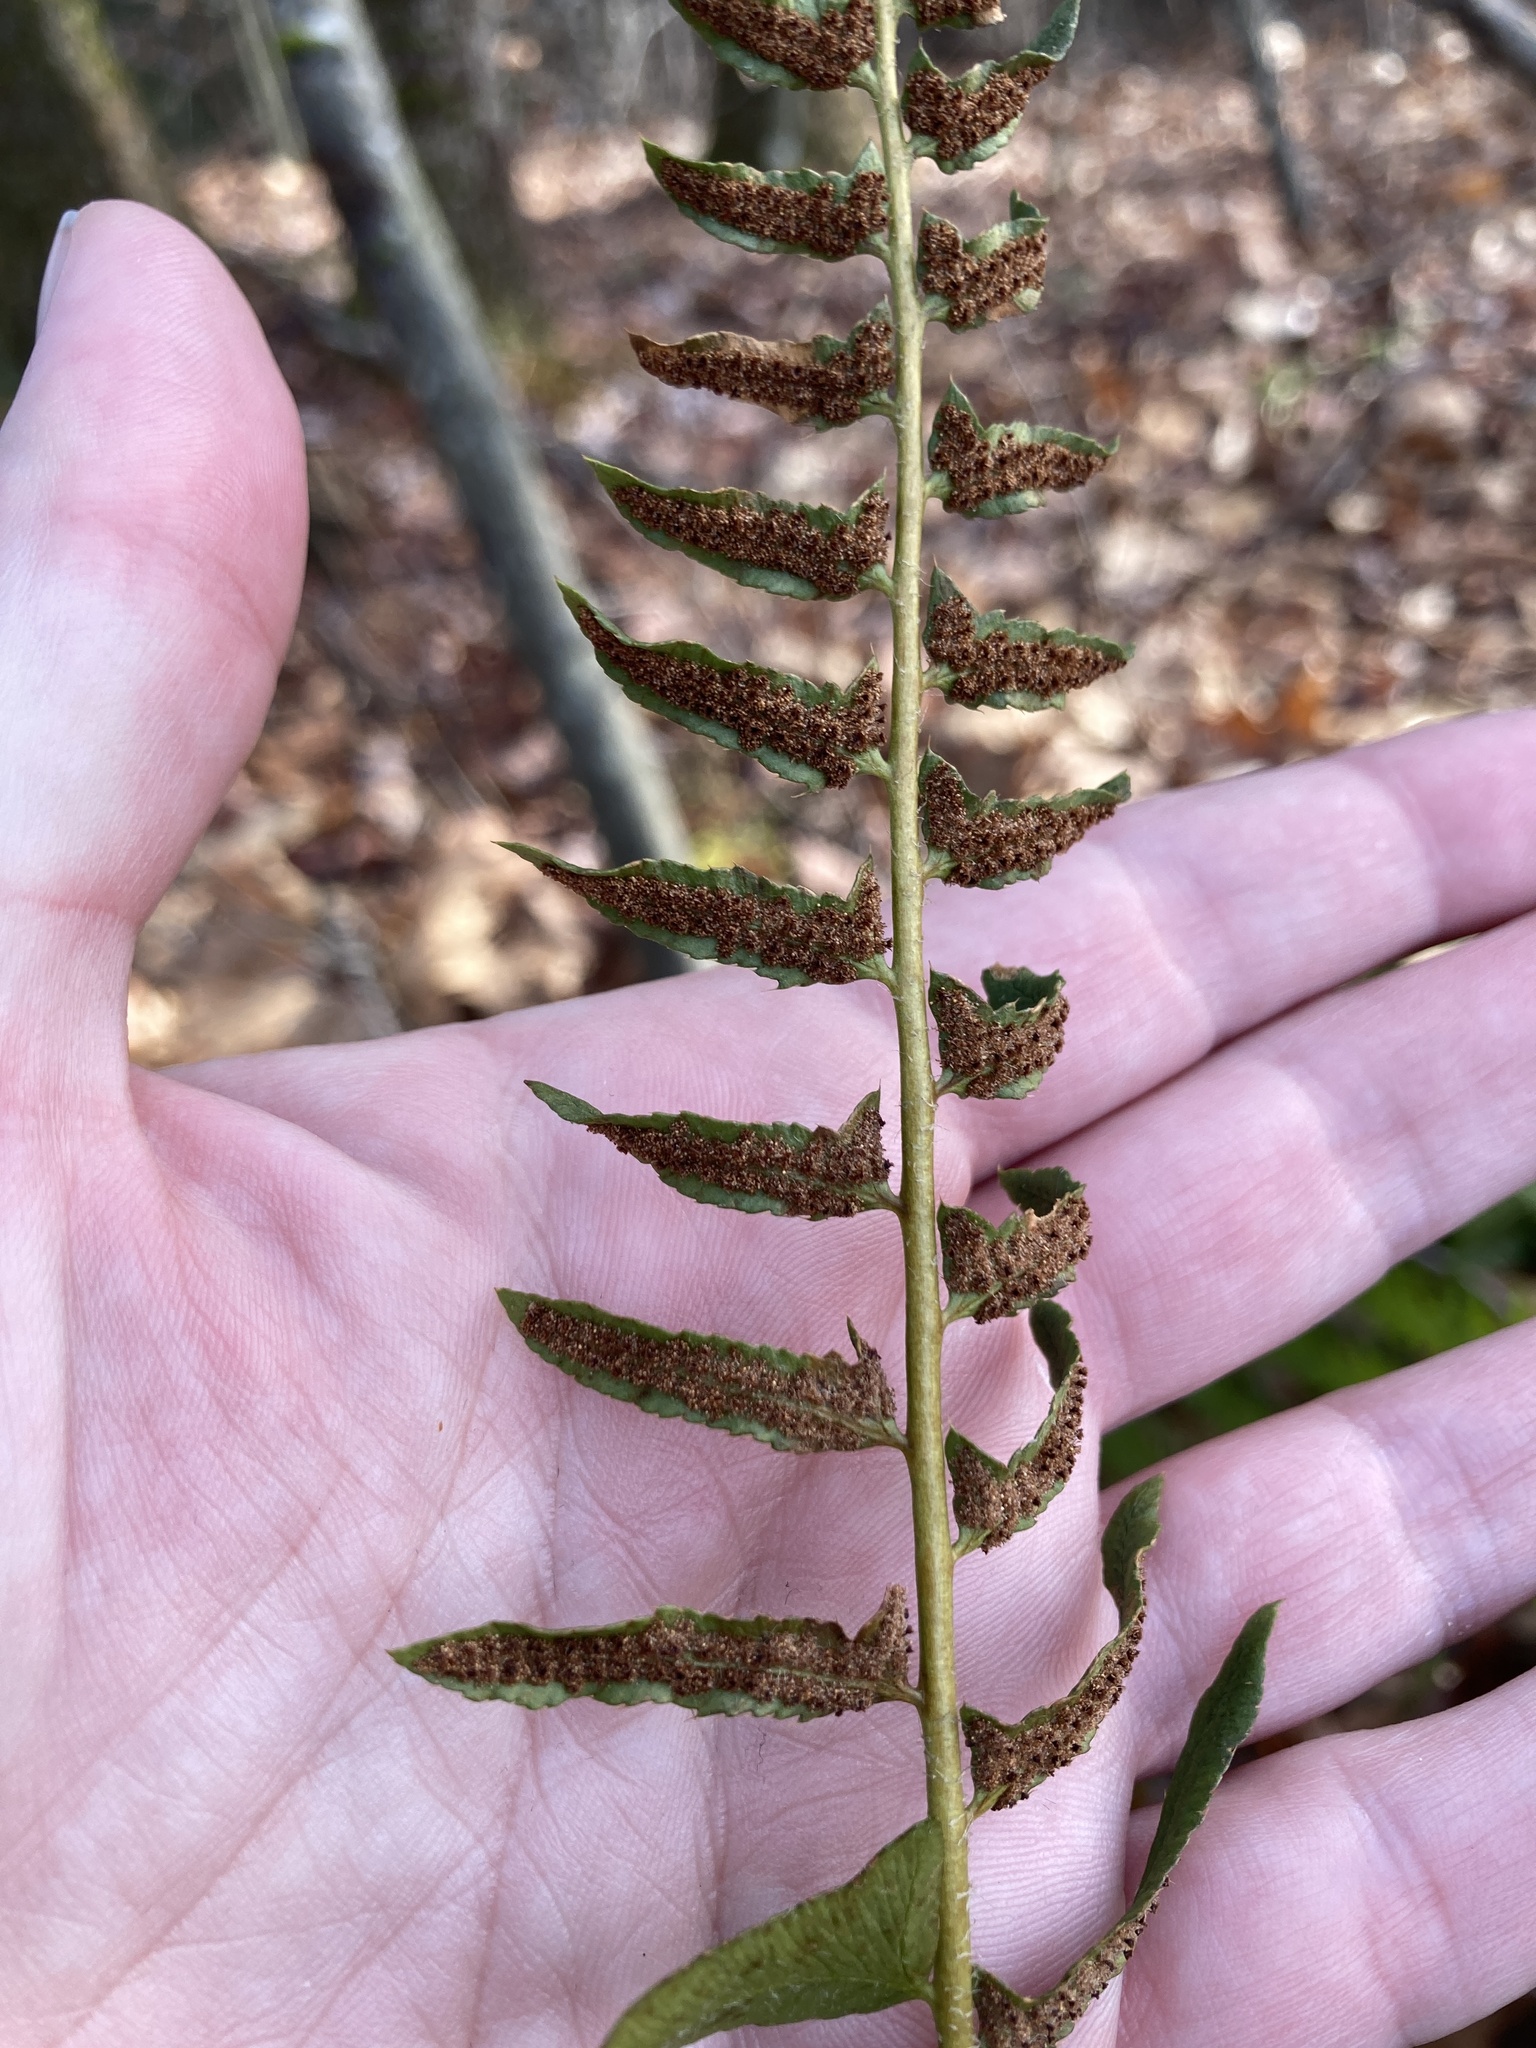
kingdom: Plantae
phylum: Tracheophyta
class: Polypodiopsida
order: Polypodiales
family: Dryopteridaceae
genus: Polystichum
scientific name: Polystichum acrostichoides
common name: Christmas fern
